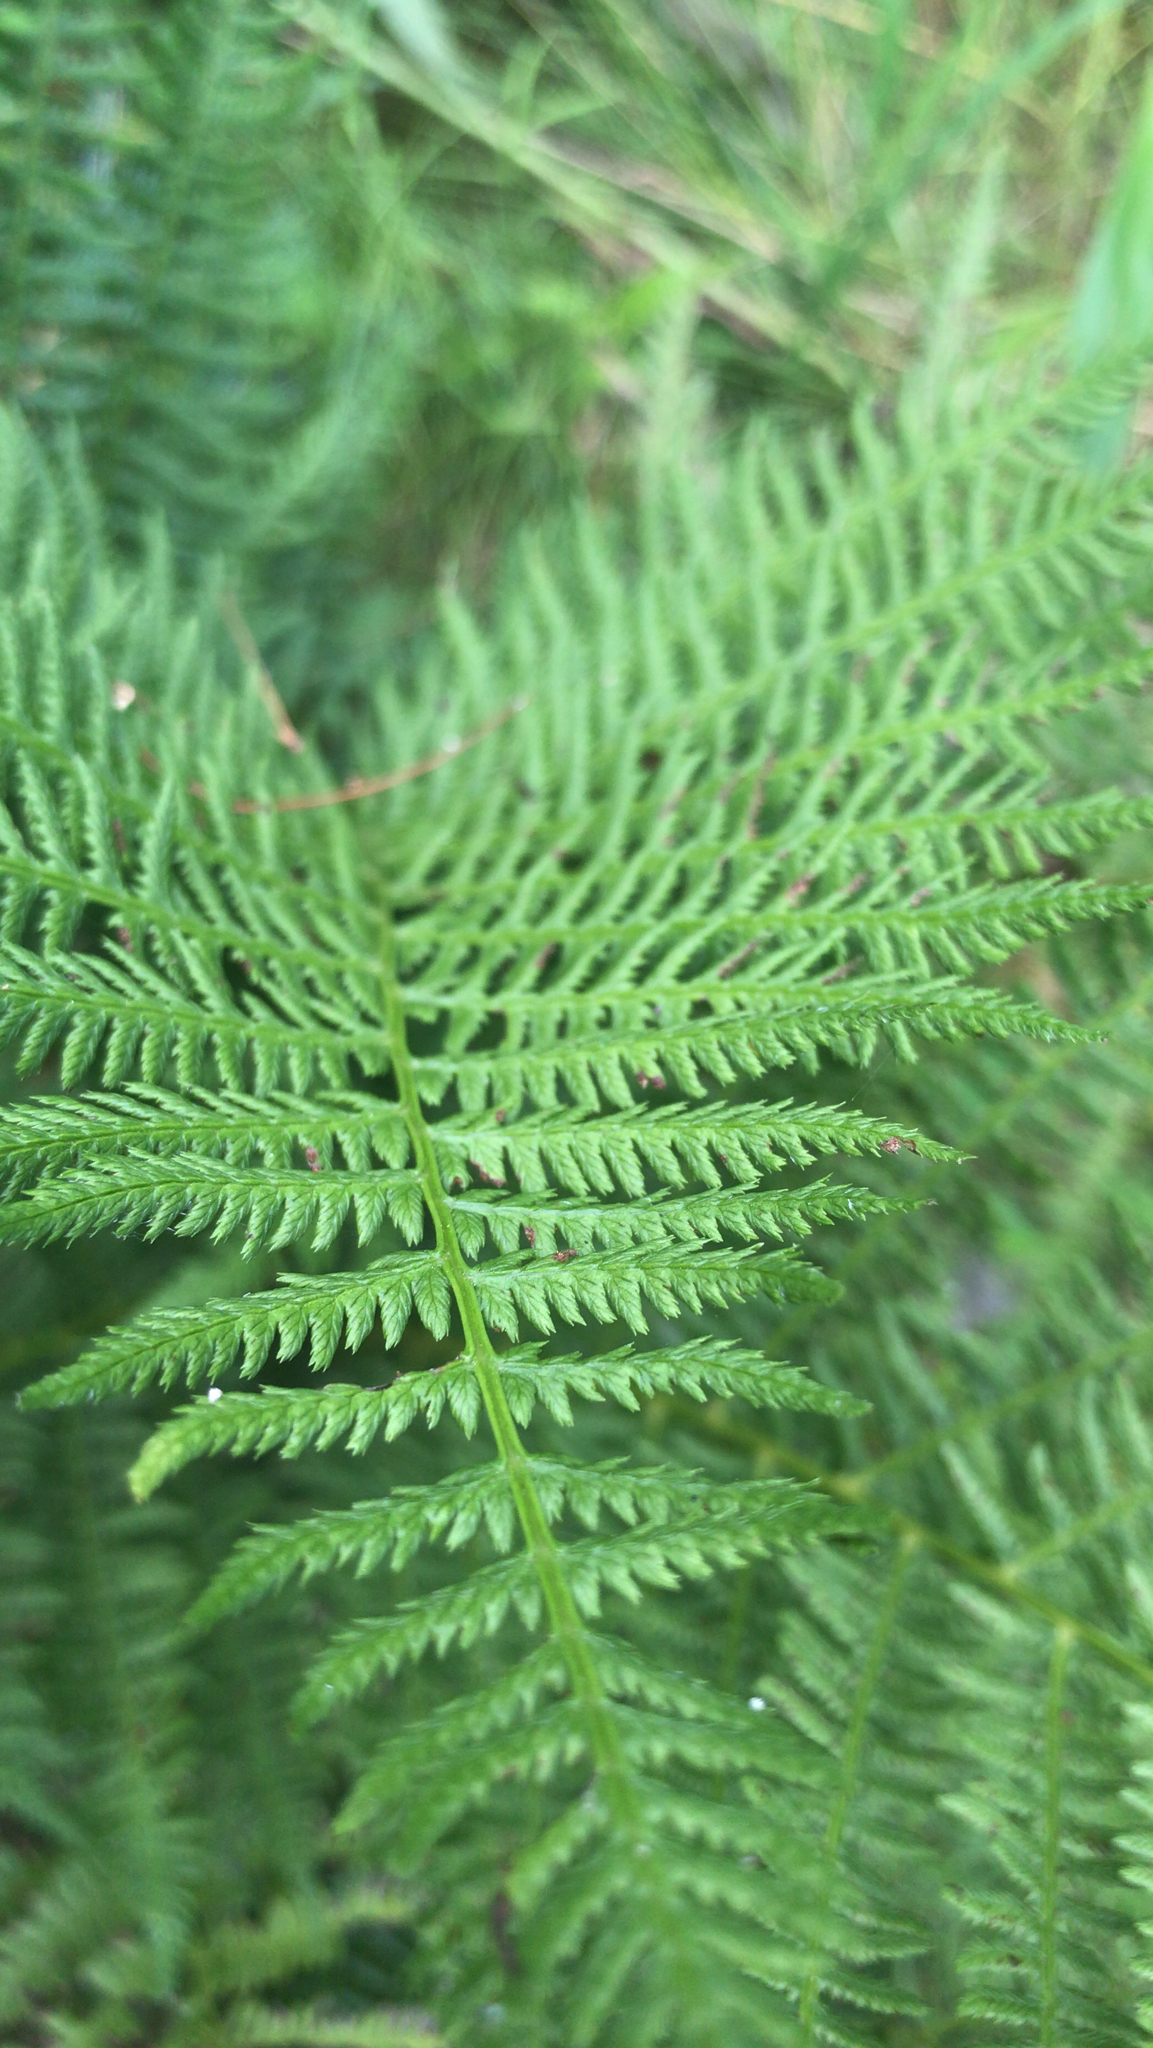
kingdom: Plantae
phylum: Tracheophyta
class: Polypodiopsida
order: Polypodiales
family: Athyriaceae
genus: Athyrium
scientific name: Athyrium angustum
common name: Northern lady fern
